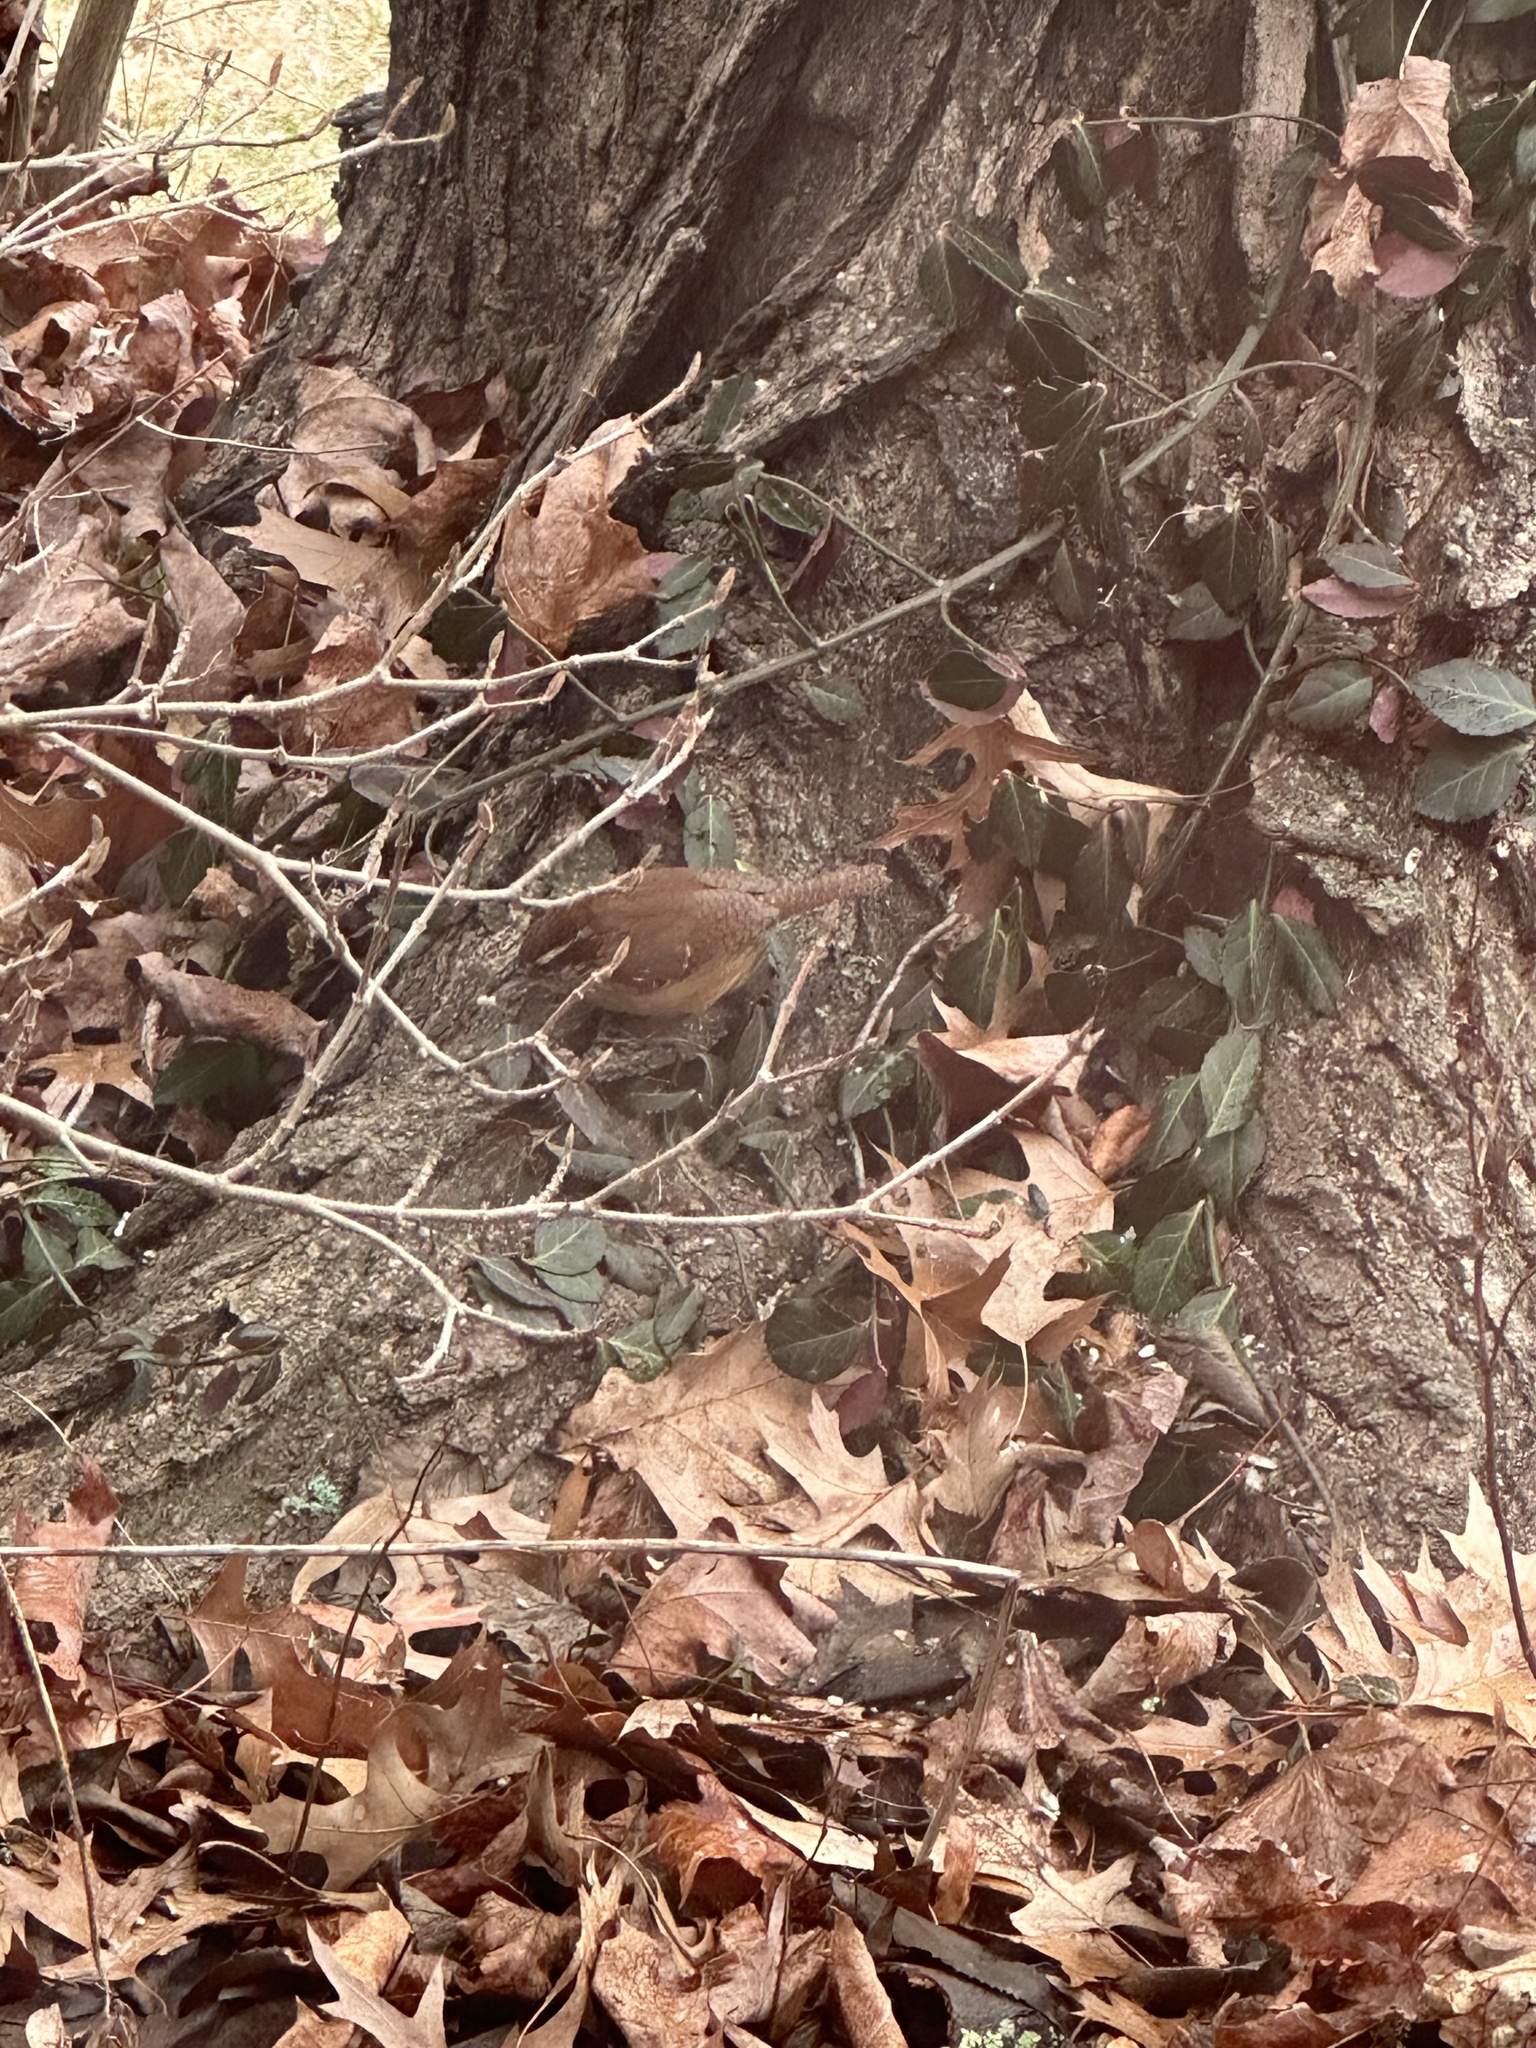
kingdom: Animalia
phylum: Chordata
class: Aves
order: Passeriformes
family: Troglodytidae
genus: Thryothorus
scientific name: Thryothorus ludovicianus
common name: Carolina wren
